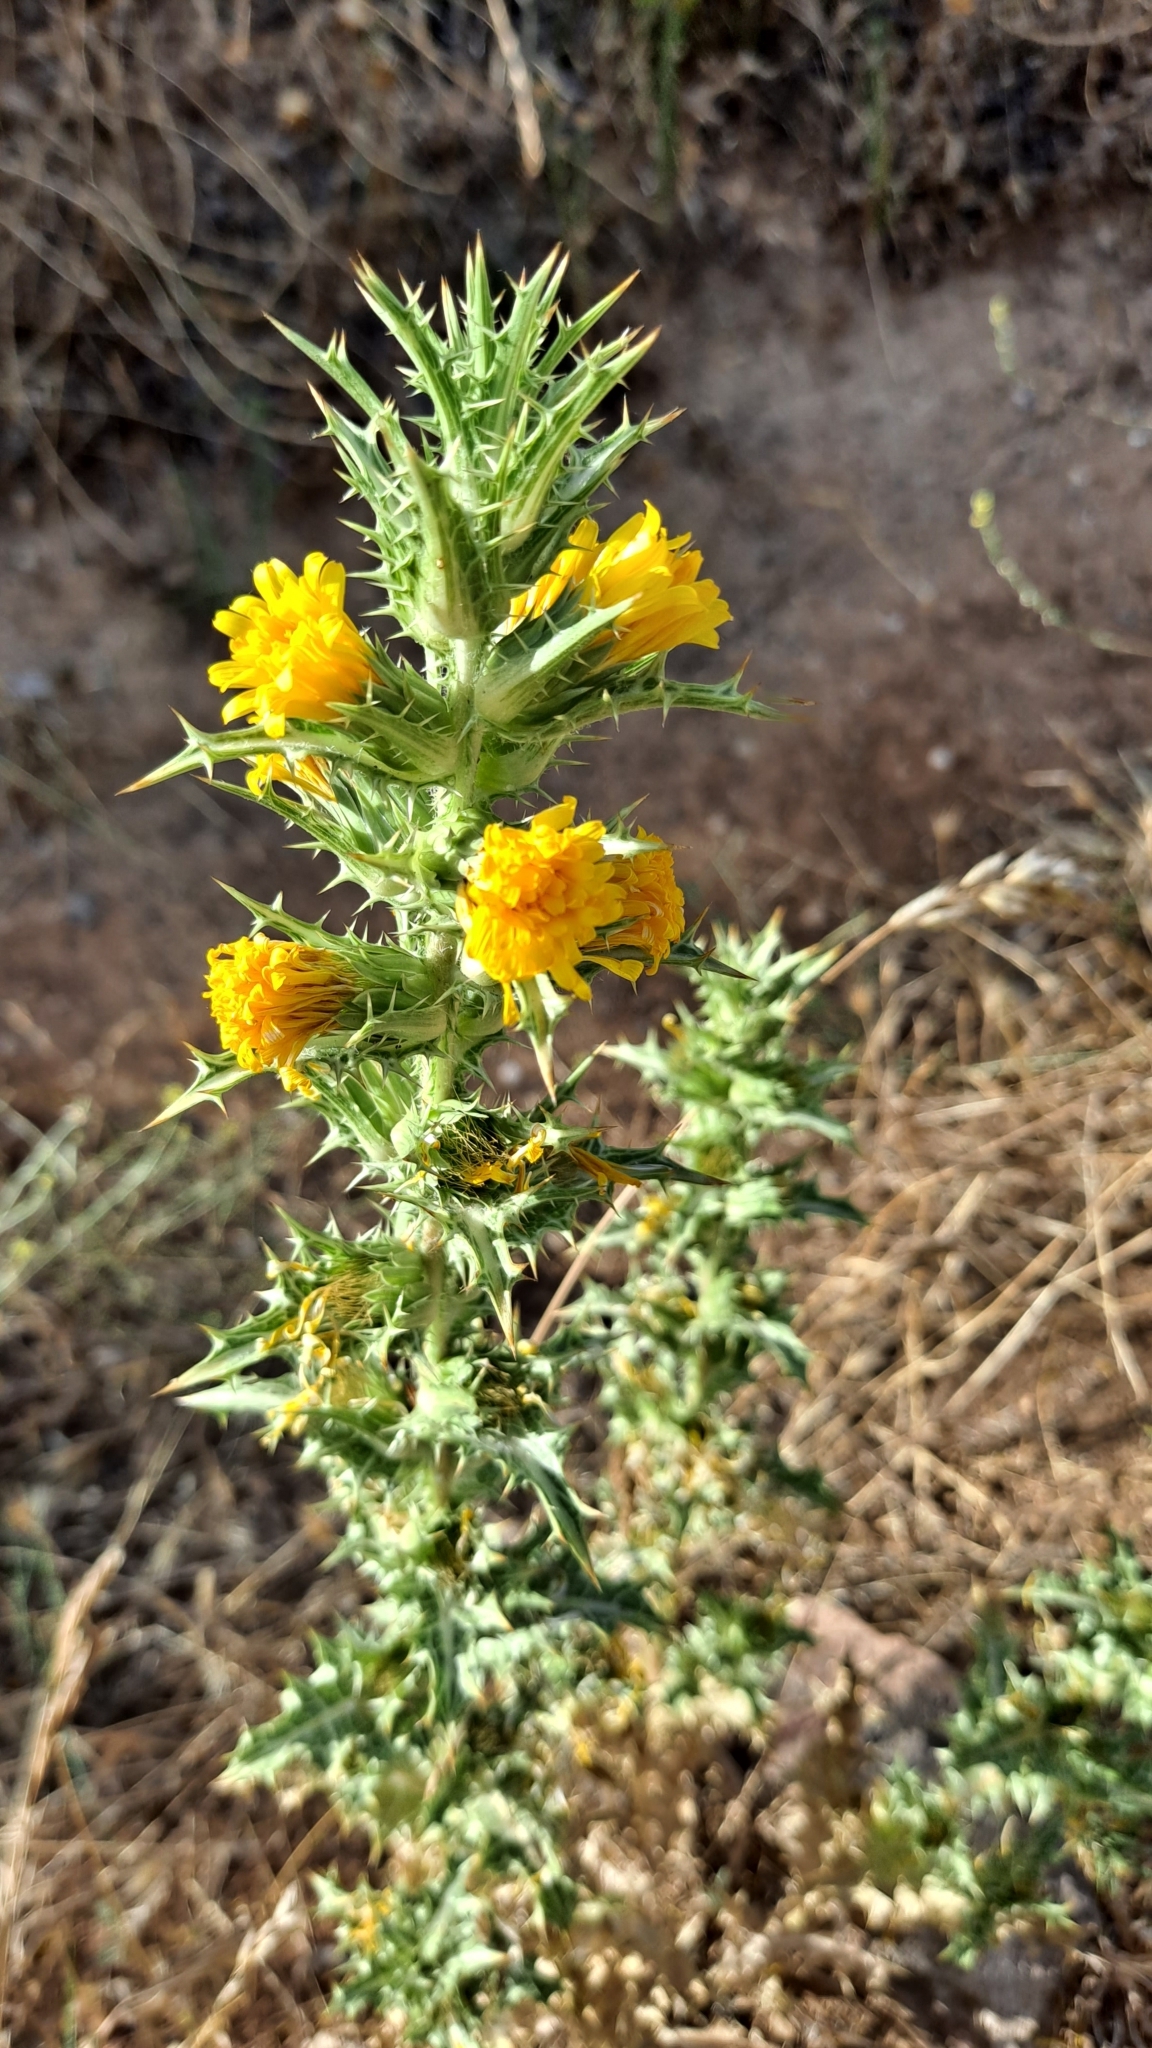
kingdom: Plantae
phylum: Tracheophyta
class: Magnoliopsida
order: Asterales
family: Asteraceae
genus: Scolymus
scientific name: Scolymus hispanicus
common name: Golden thistle
